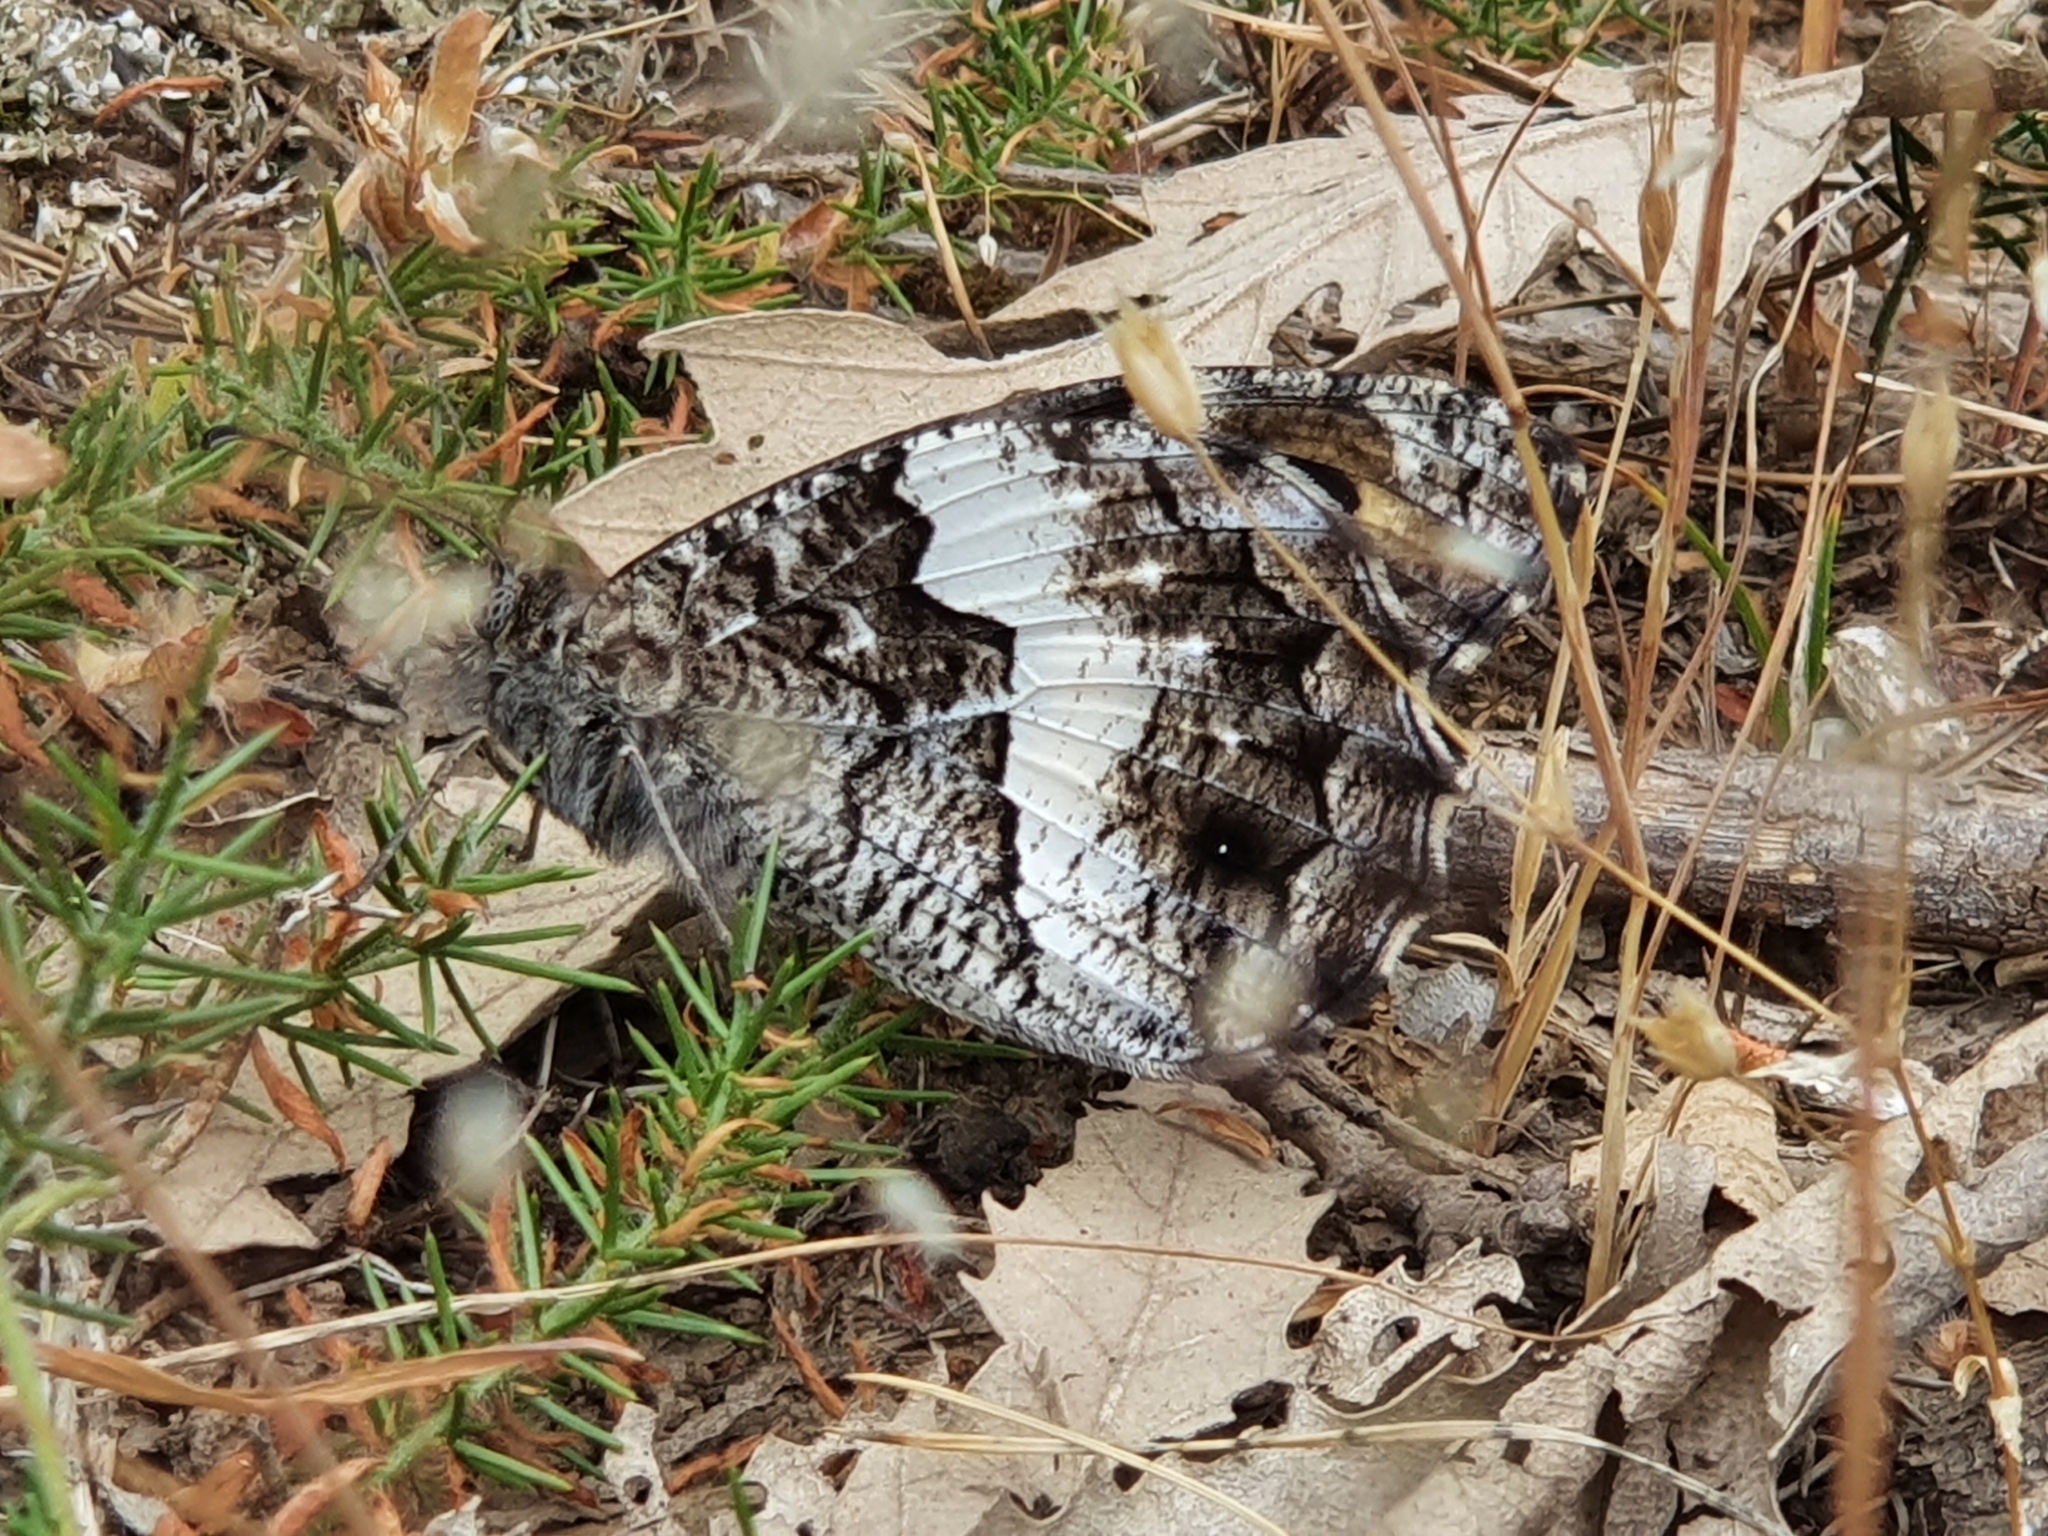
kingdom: Animalia
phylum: Arthropoda
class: Insecta
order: Lepidoptera
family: Nymphalidae
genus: Hipparchia
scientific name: Hipparchia ellena
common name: Algerian grayling
